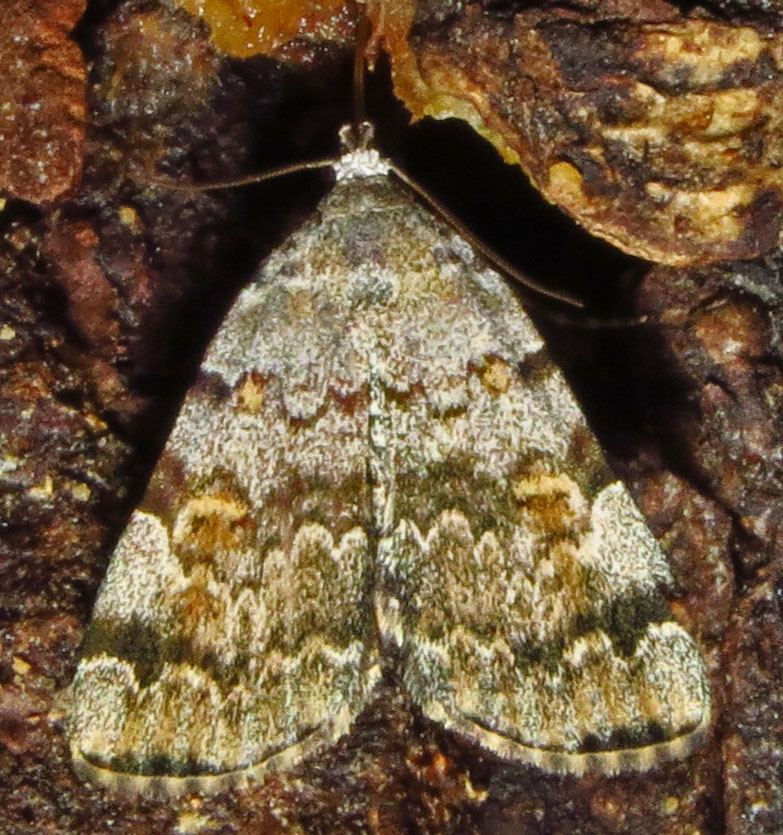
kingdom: Animalia
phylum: Arthropoda
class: Insecta
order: Lepidoptera
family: Erebidae
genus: Idia
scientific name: Idia americalis
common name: American idia moth
